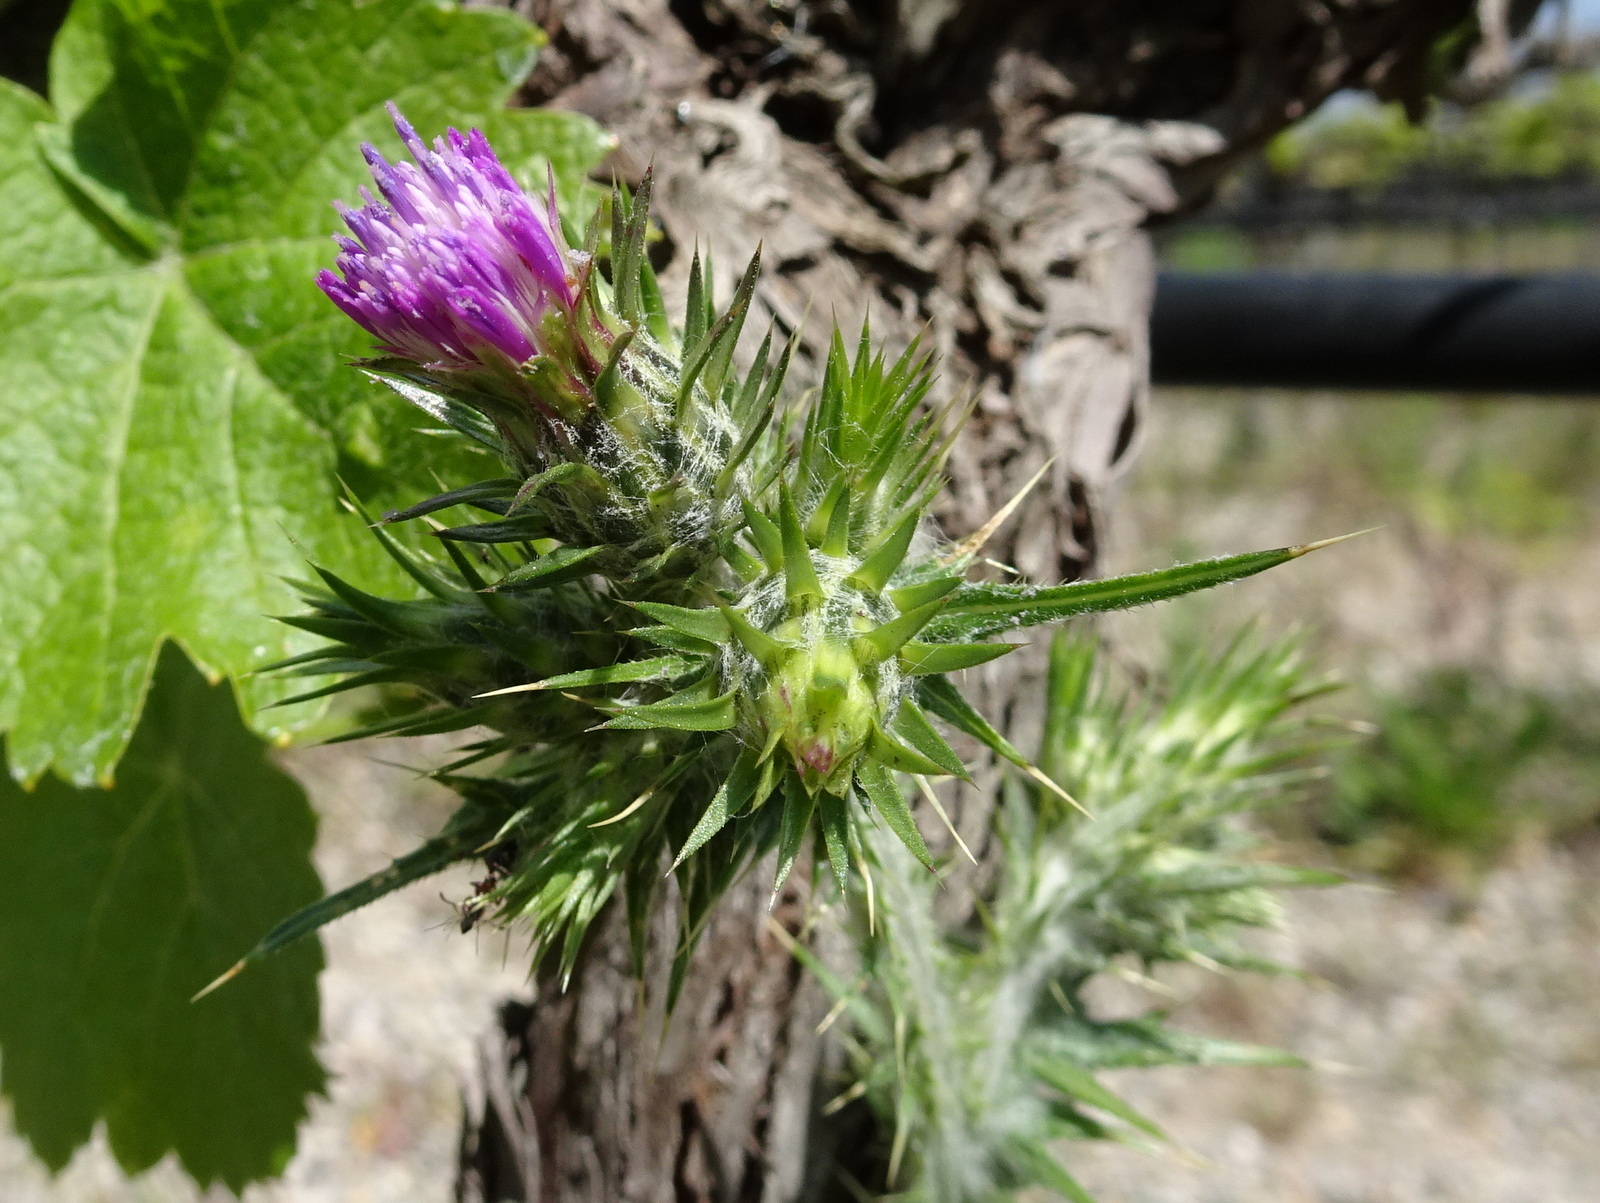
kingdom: Plantae
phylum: Tracheophyta
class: Magnoliopsida
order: Asterales
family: Asteraceae
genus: Carduus
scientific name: Carduus tenuiflorus
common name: Slender thistle
